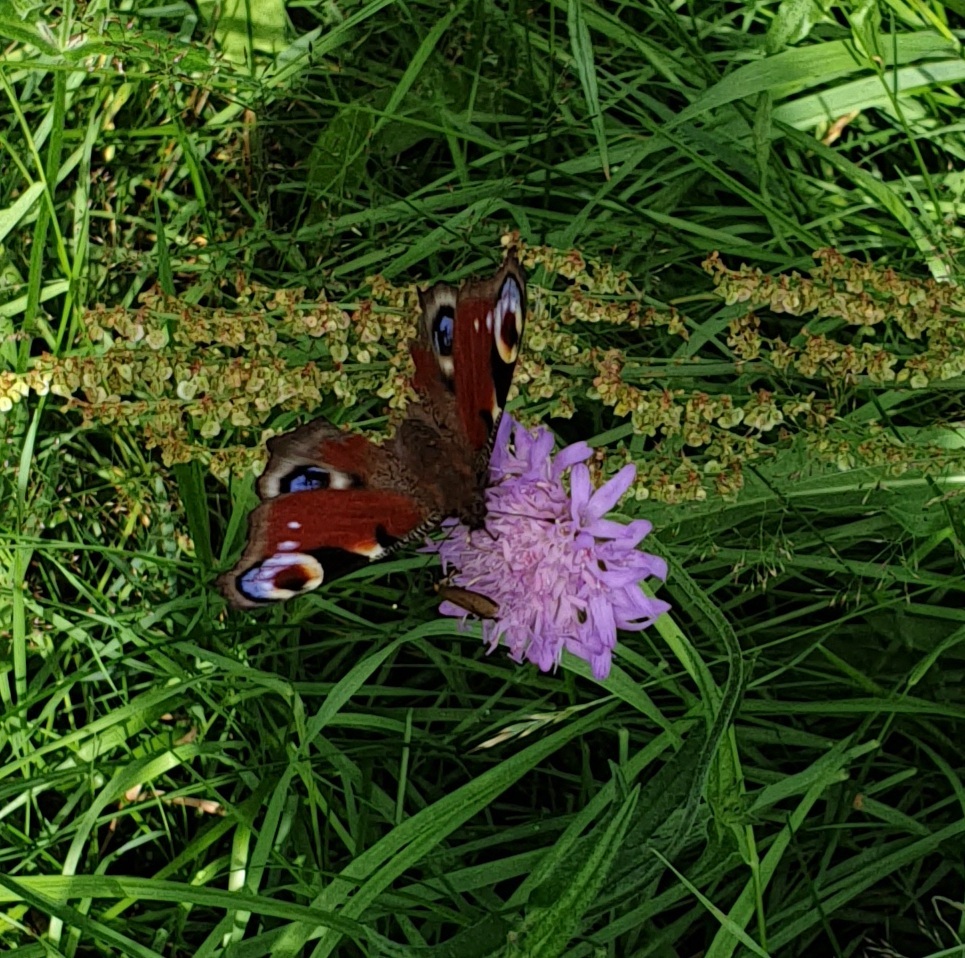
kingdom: Animalia
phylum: Arthropoda
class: Insecta
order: Lepidoptera
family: Nymphalidae
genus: Aglais
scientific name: Aglais io
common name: Peacock
